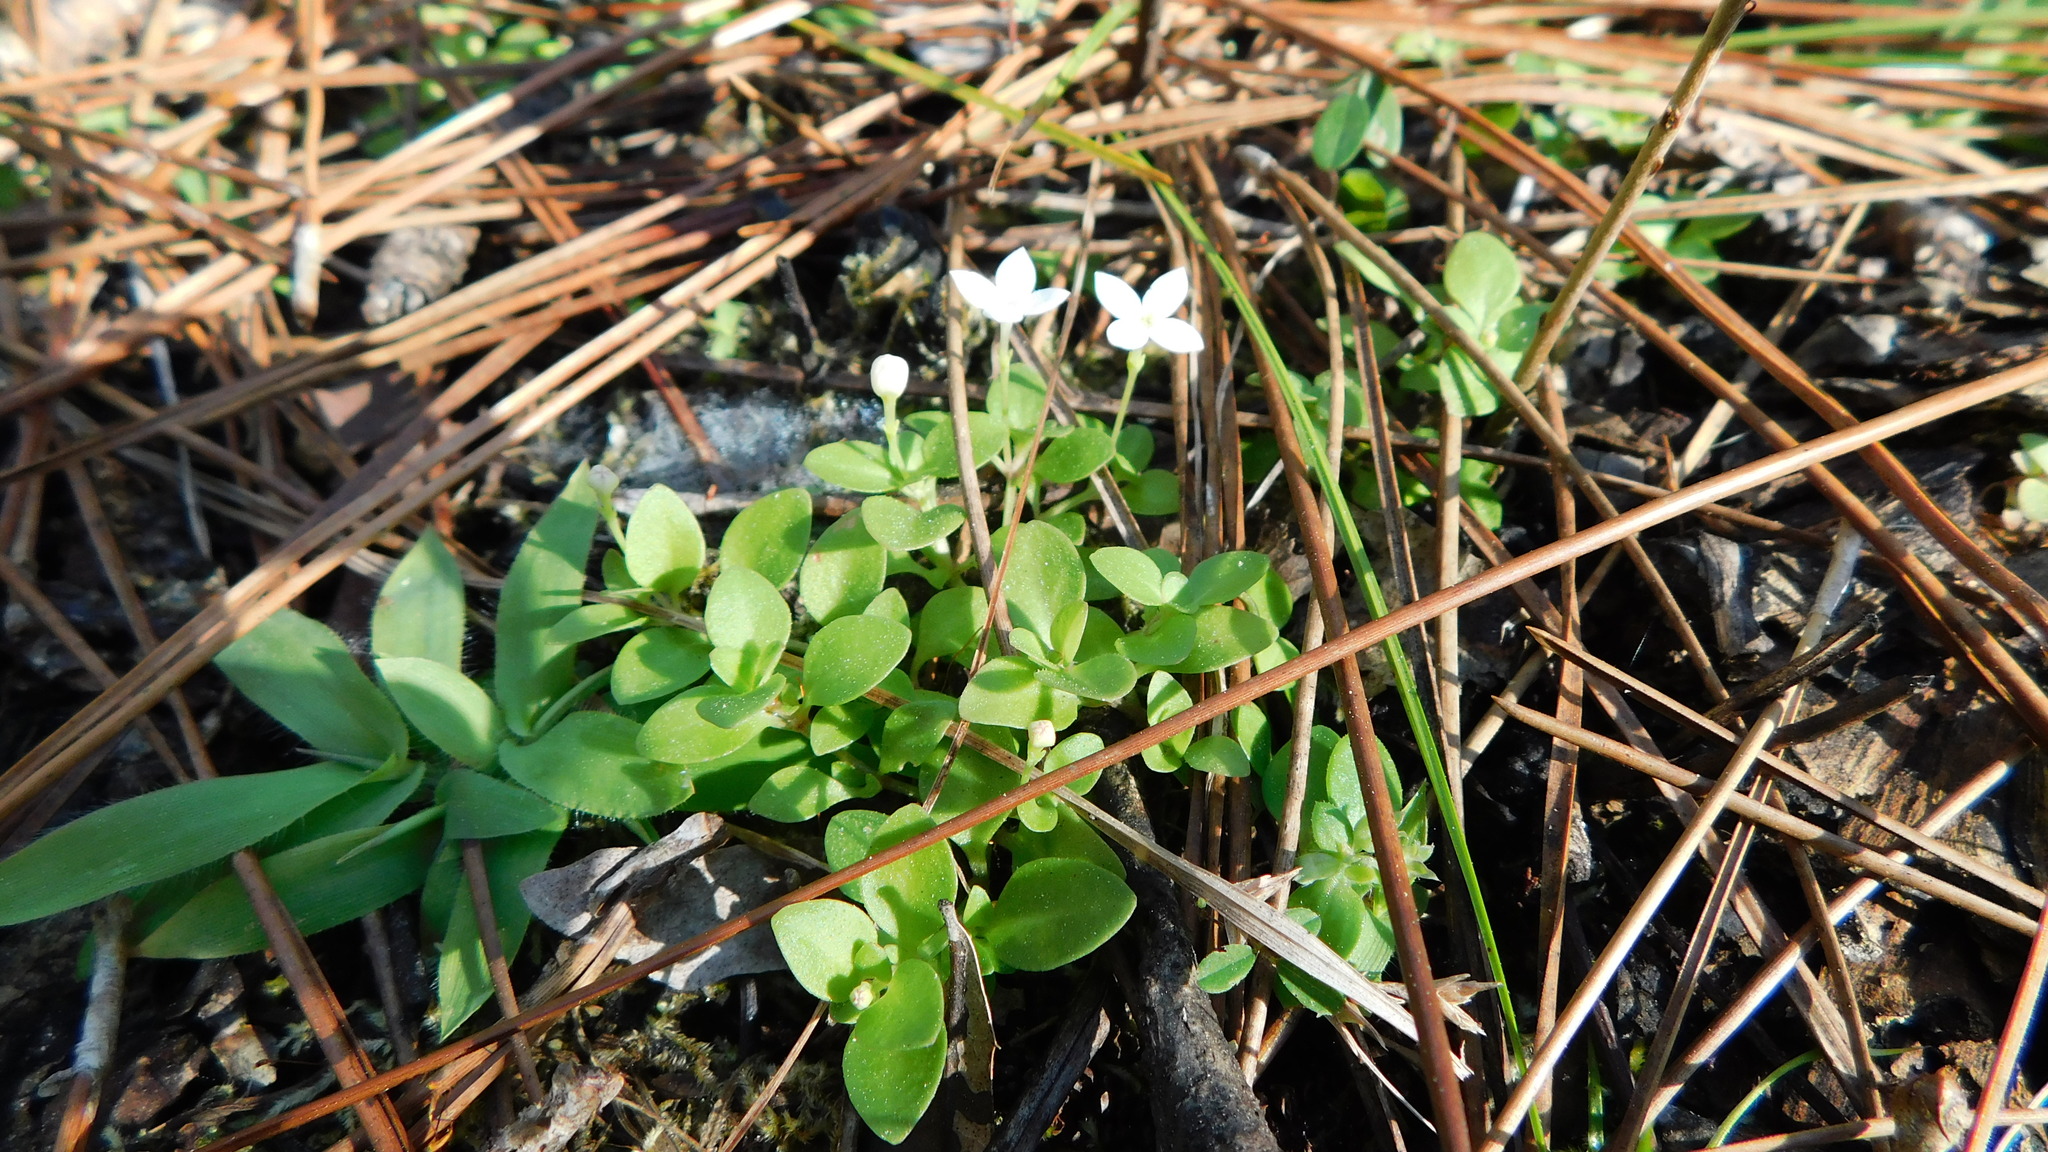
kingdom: Plantae
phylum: Tracheophyta
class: Magnoliopsida
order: Gentianales
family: Rubiaceae
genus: Houstonia
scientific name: Houstonia procumbens
